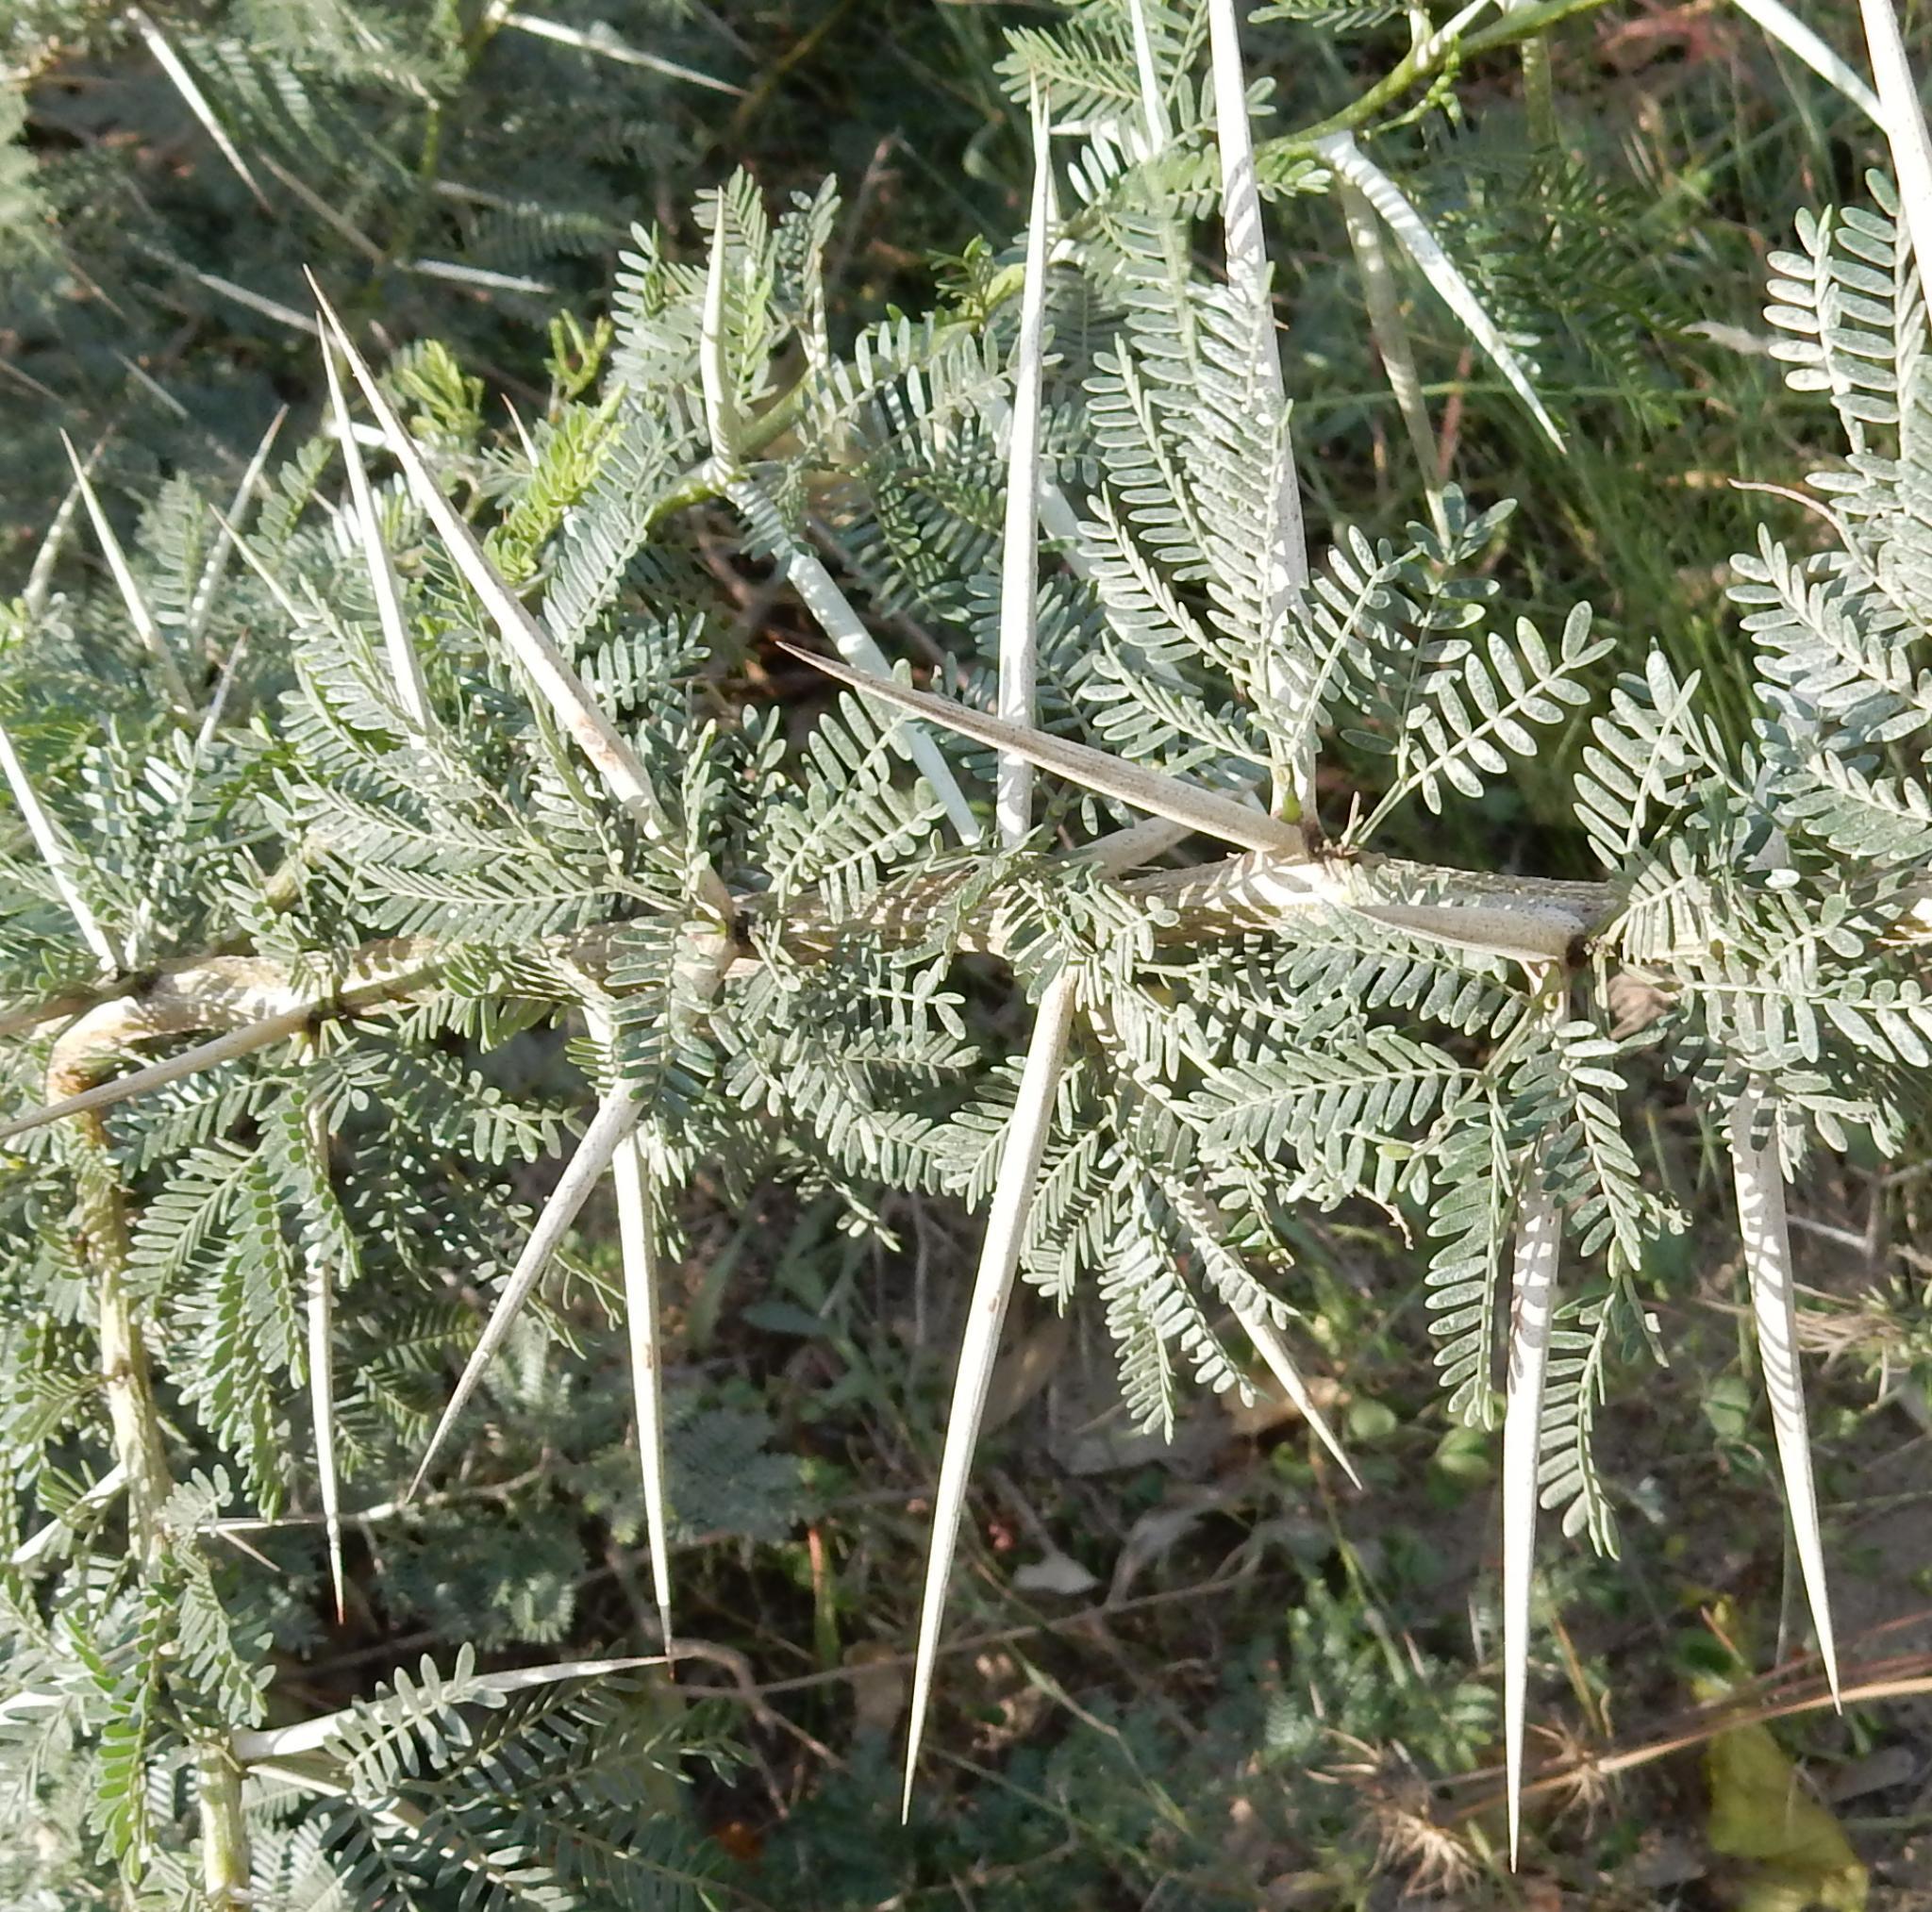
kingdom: Plantae
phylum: Tracheophyta
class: Magnoliopsida
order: Fabales
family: Fabaceae
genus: Vachellia
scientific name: Vachellia karroo
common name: Sweet thorn
